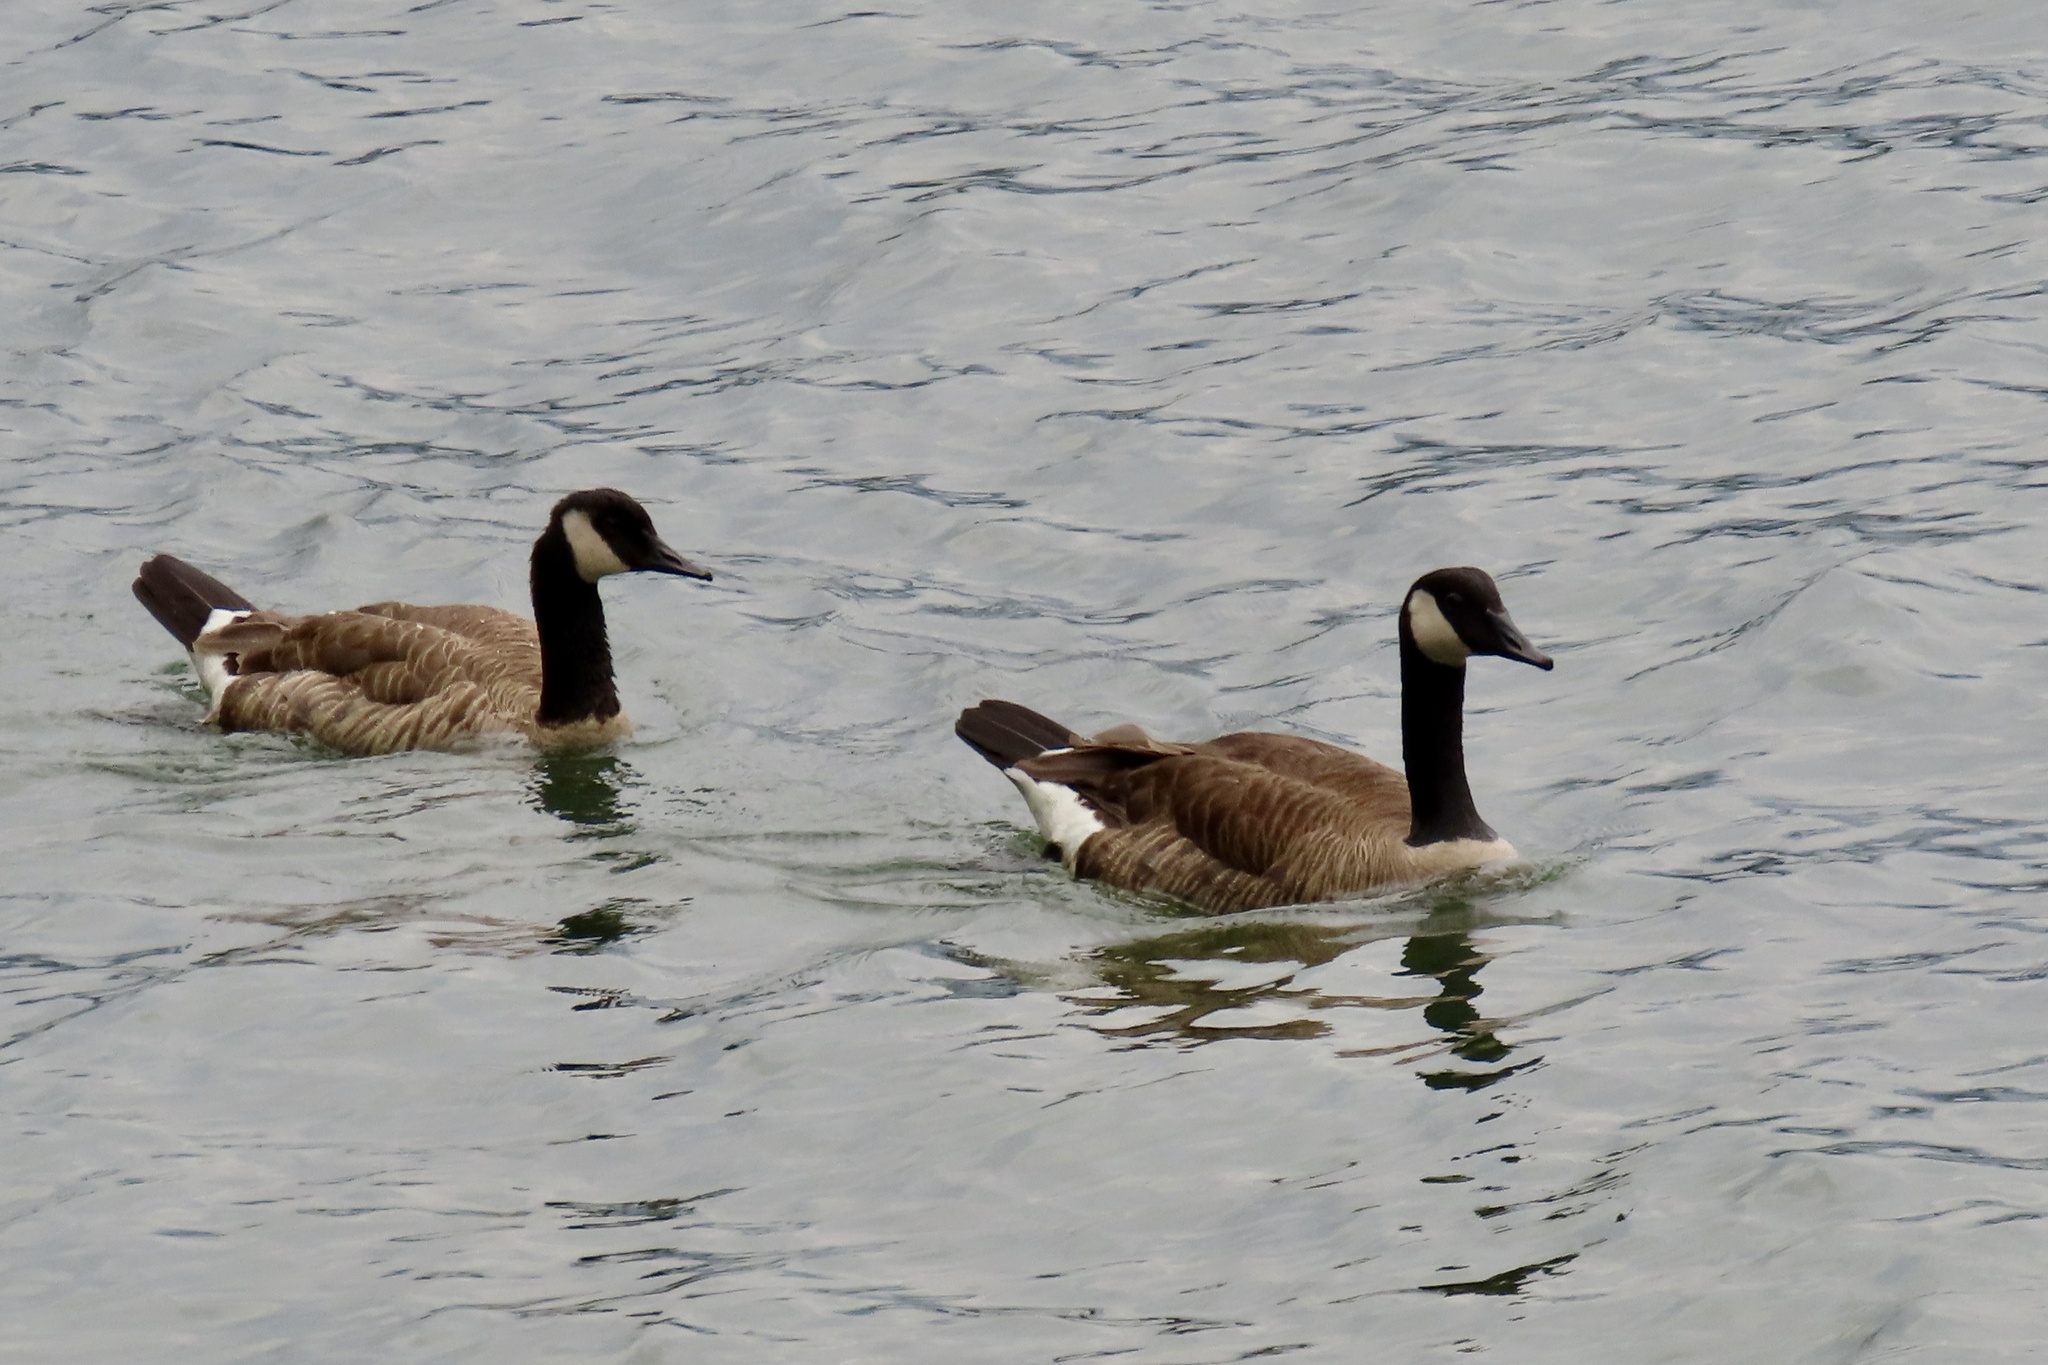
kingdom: Animalia
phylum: Chordata
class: Aves
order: Anseriformes
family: Anatidae
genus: Branta
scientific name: Branta canadensis
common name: Canada goose
